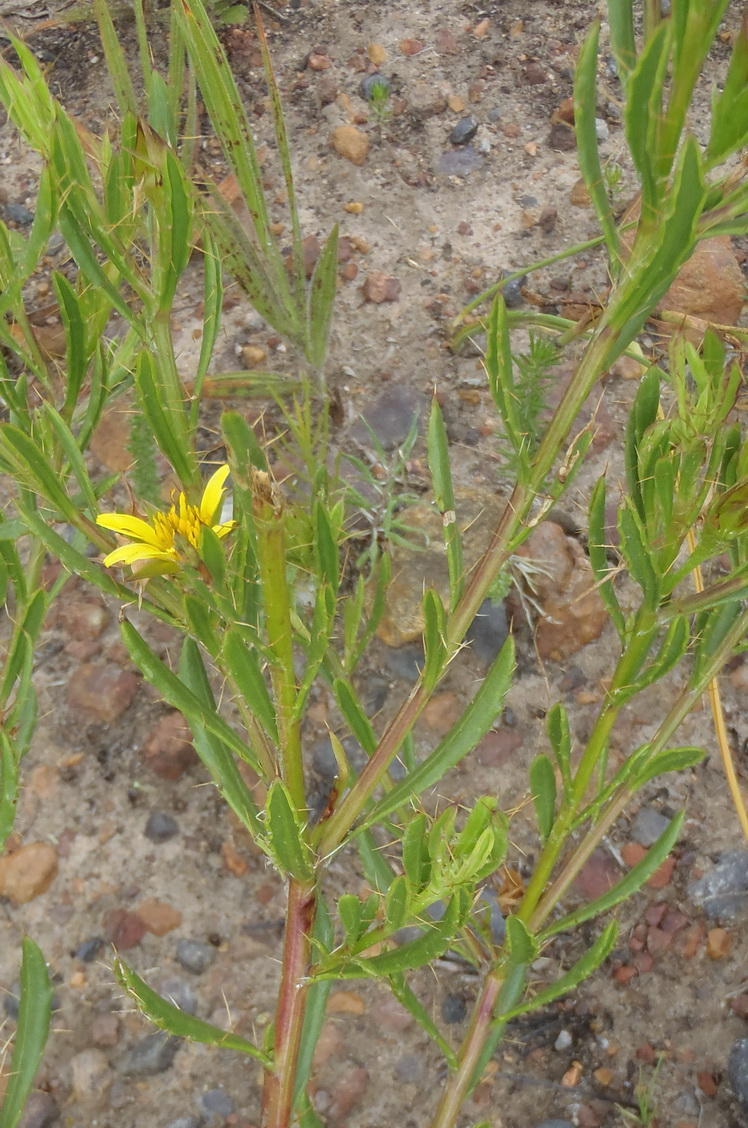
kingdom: Plantae
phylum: Tracheophyta
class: Magnoliopsida
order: Asterales
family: Asteraceae
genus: Cullumia
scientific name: Cullumia aculeata
